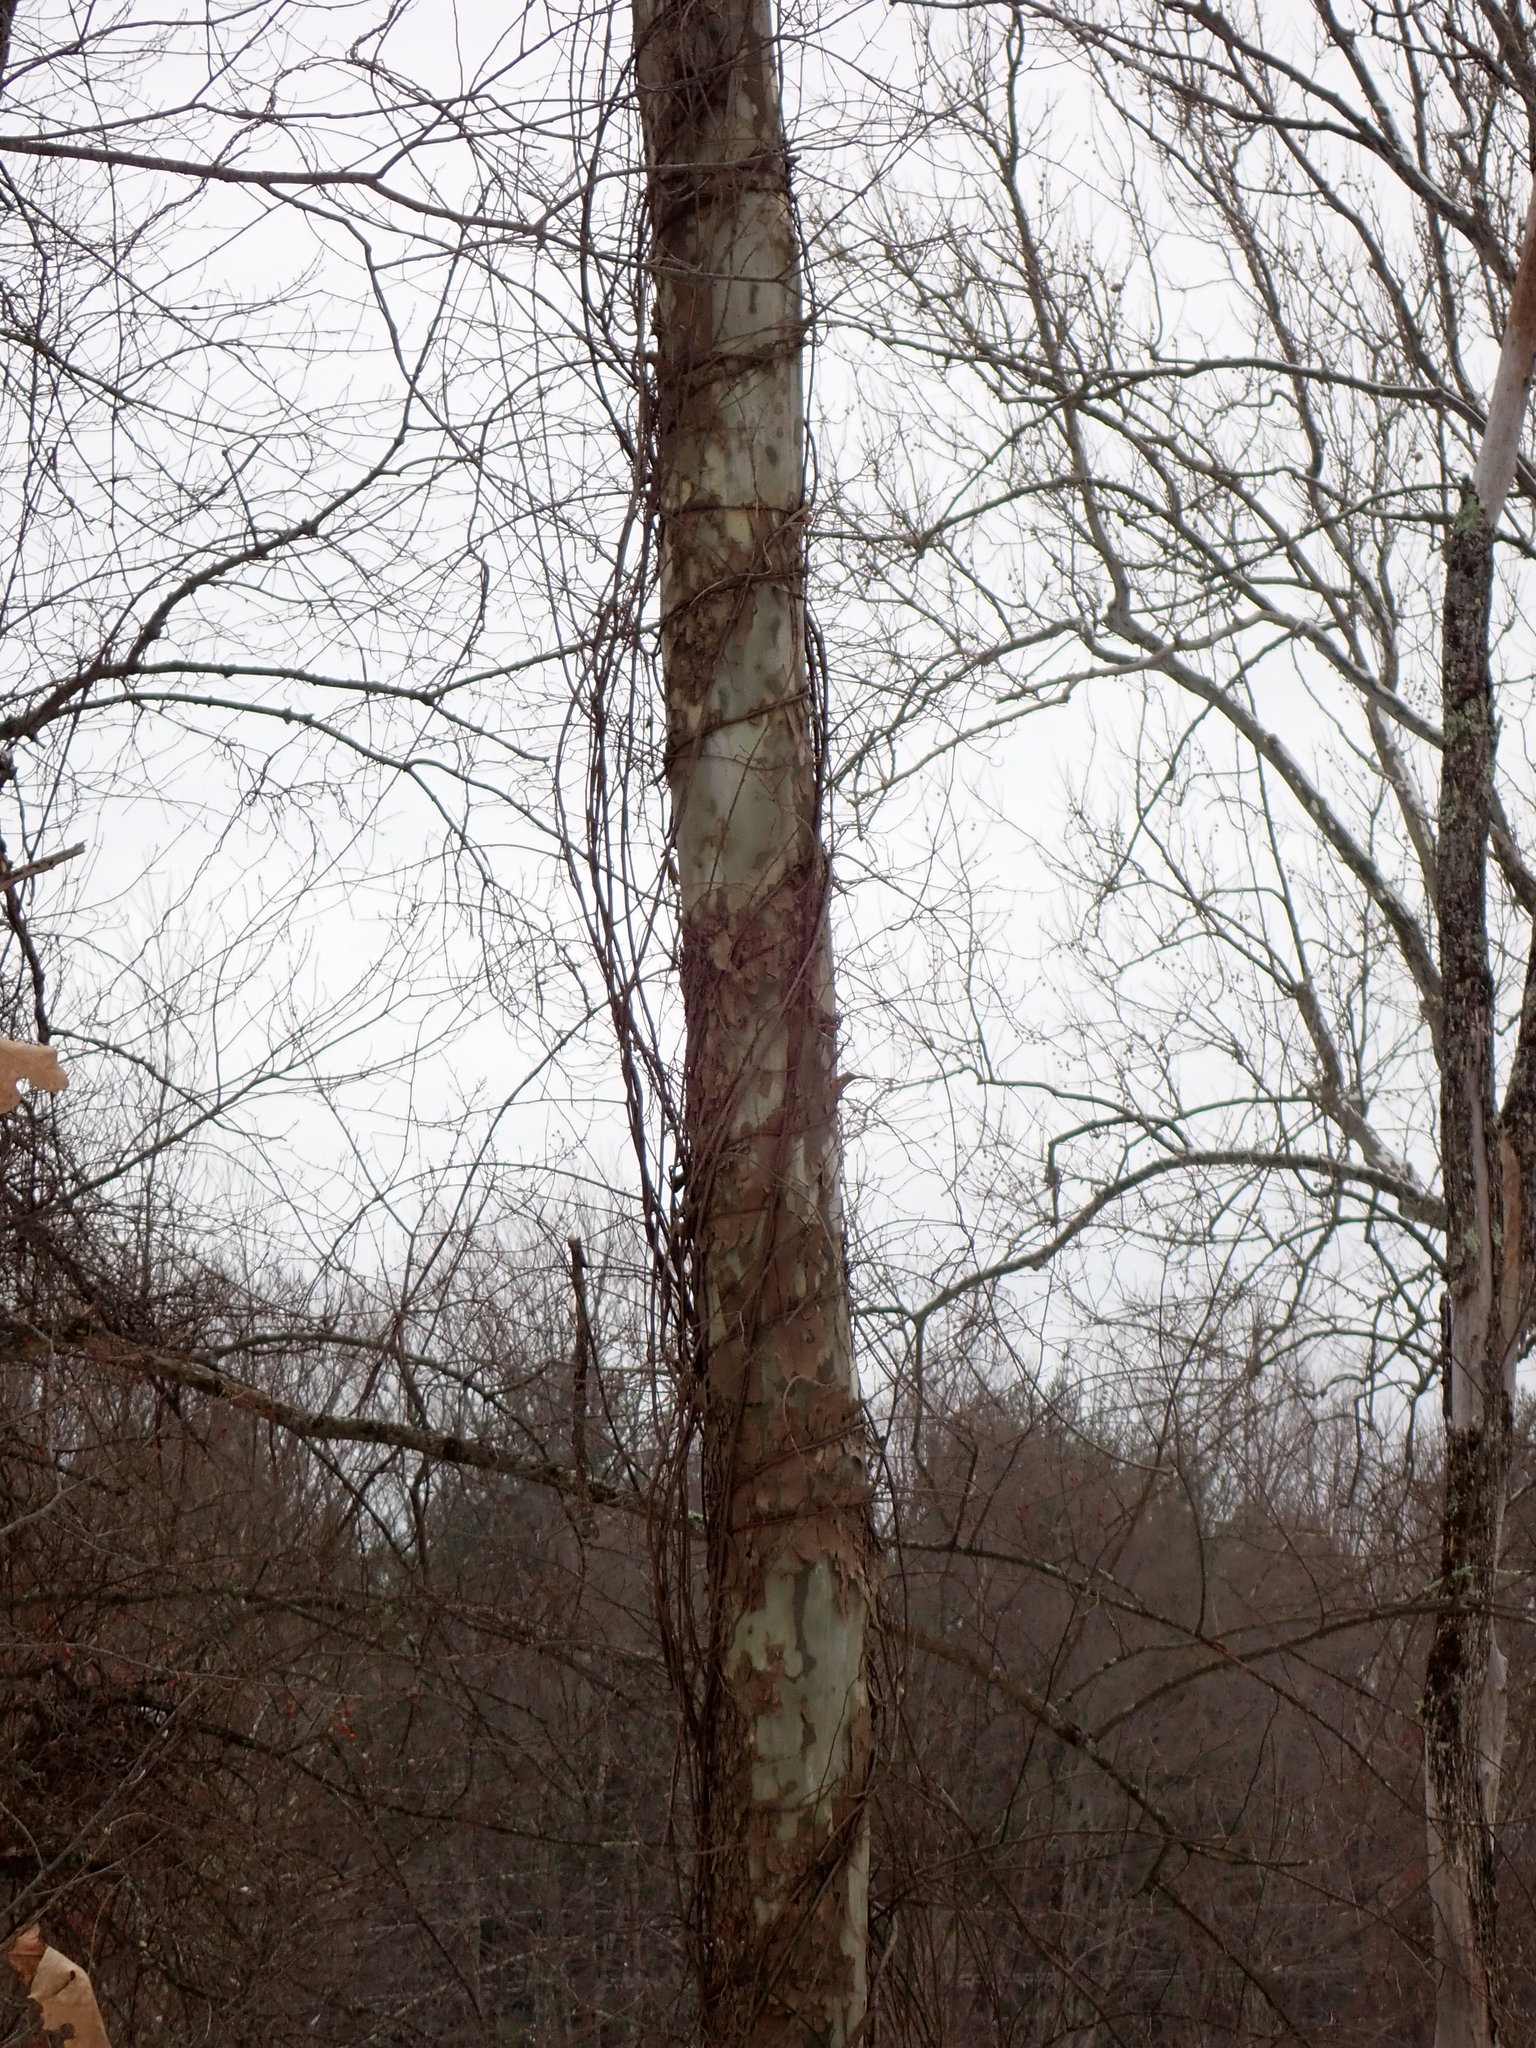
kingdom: Plantae
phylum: Tracheophyta
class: Magnoliopsida
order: Proteales
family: Platanaceae
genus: Platanus
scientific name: Platanus occidentalis
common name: American sycamore
